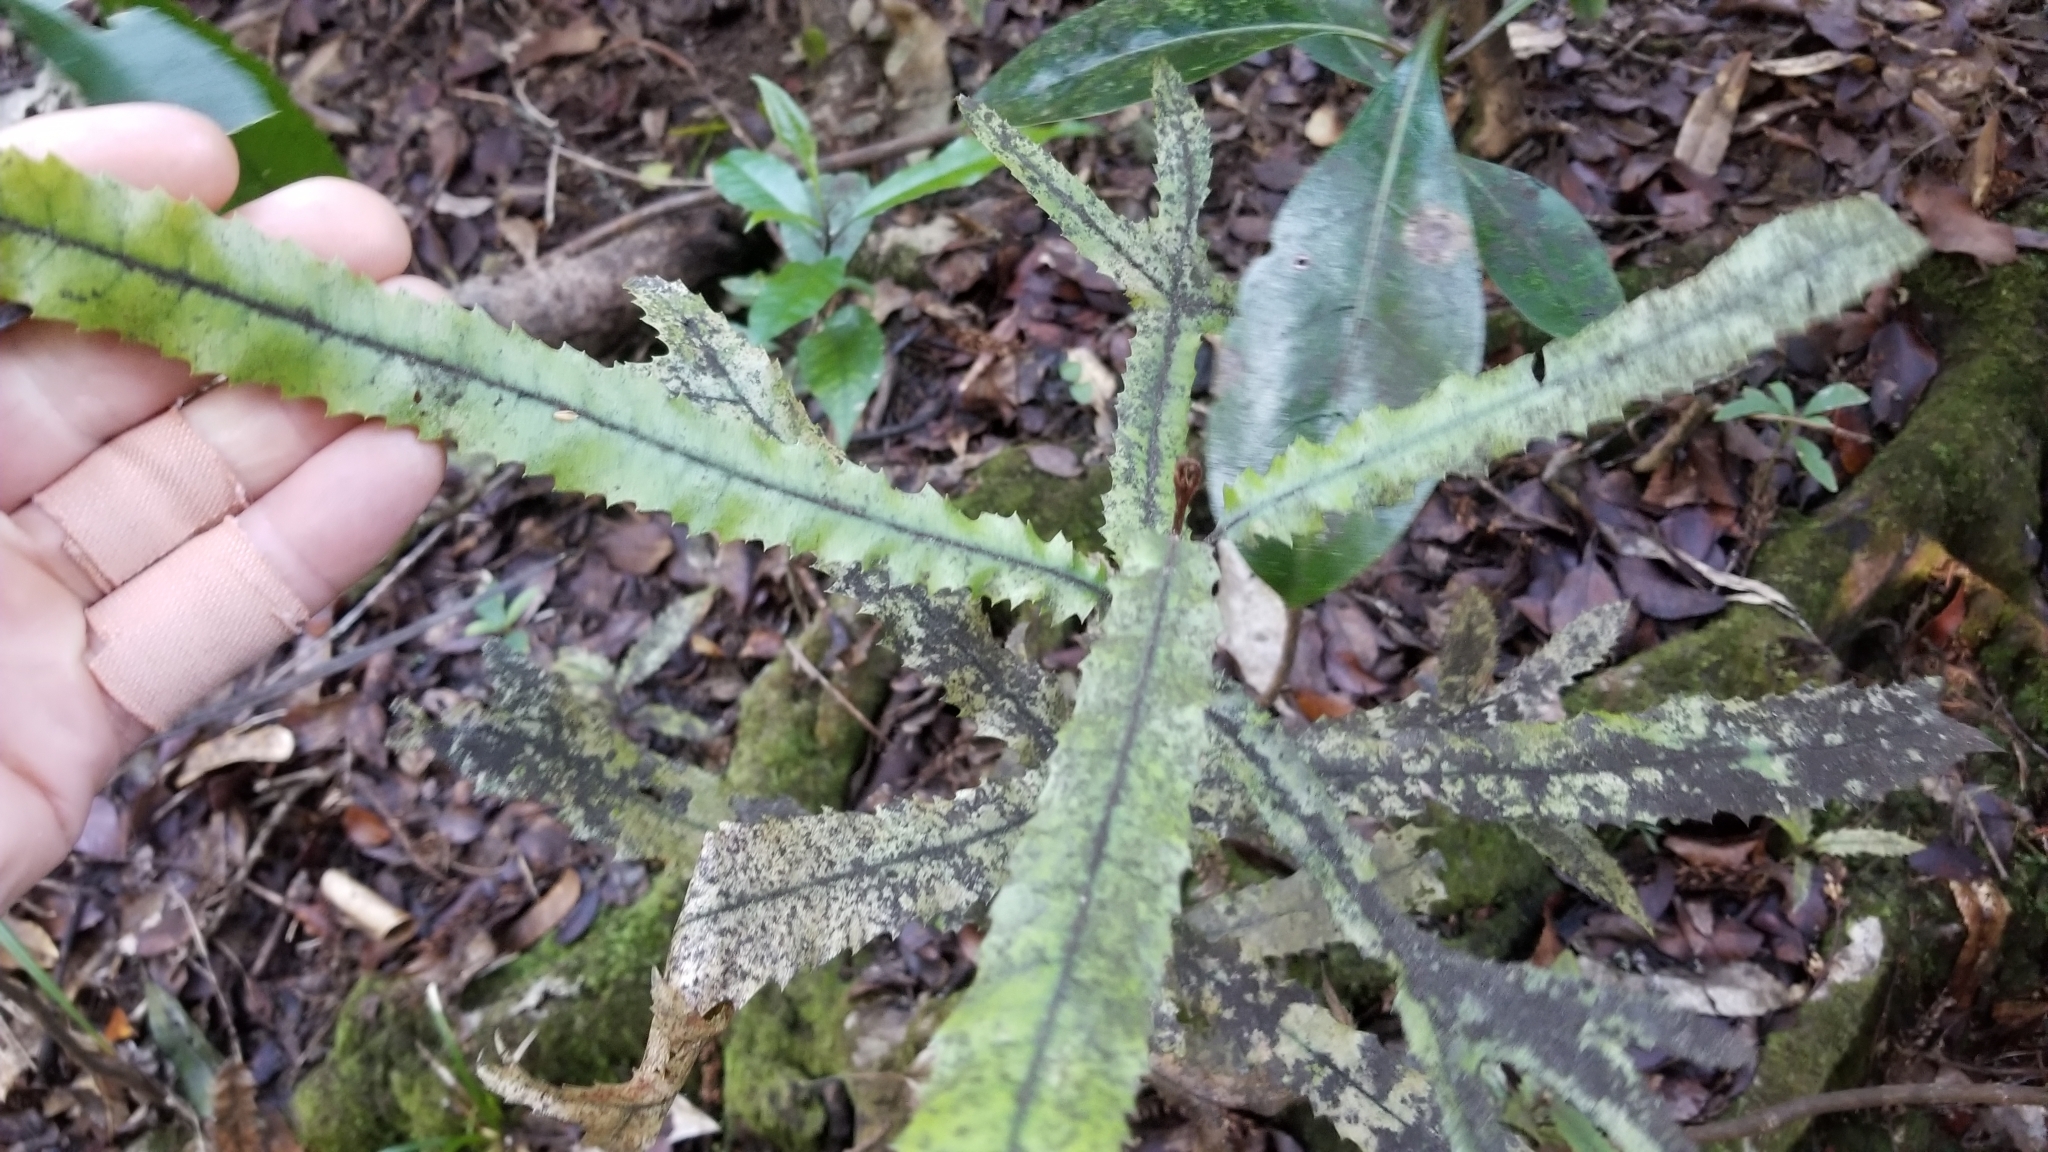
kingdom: Plantae
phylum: Tracheophyta
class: Magnoliopsida
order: Proteales
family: Proteaceae
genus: Knightia
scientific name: Knightia excelsa
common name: New zealand-honeysuckle
